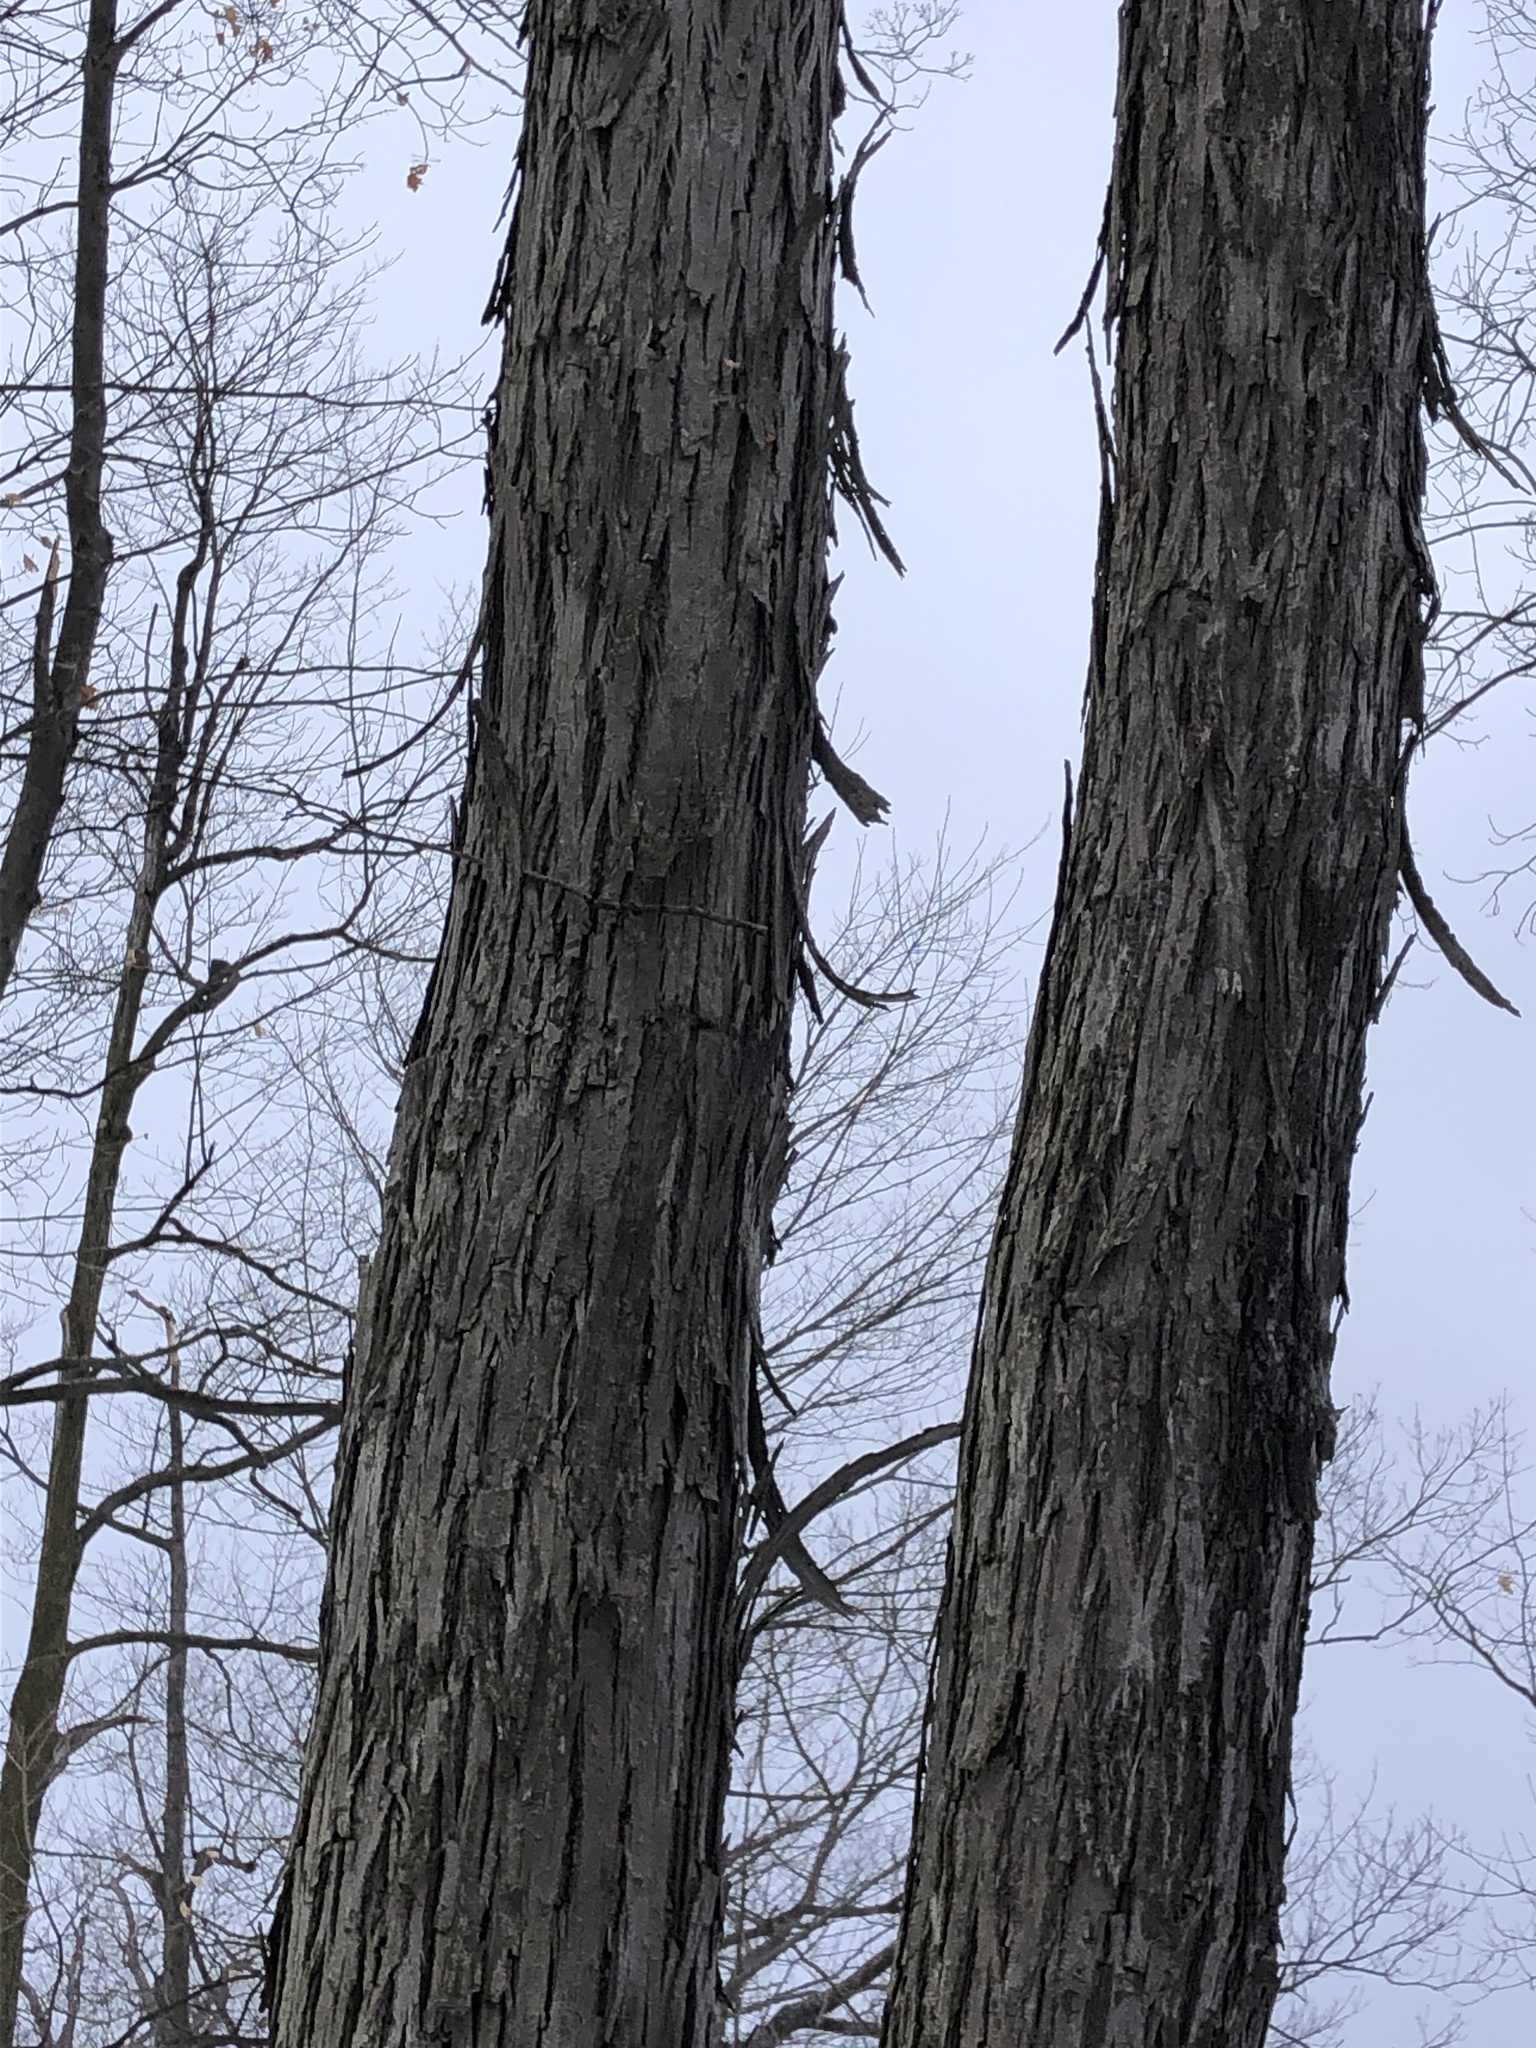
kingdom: Plantae
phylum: Tracheophyta
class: Magnoliopsida
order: Fagales
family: Juglandaceae
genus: Carya
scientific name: Carya ovata
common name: Shagbark hickory
